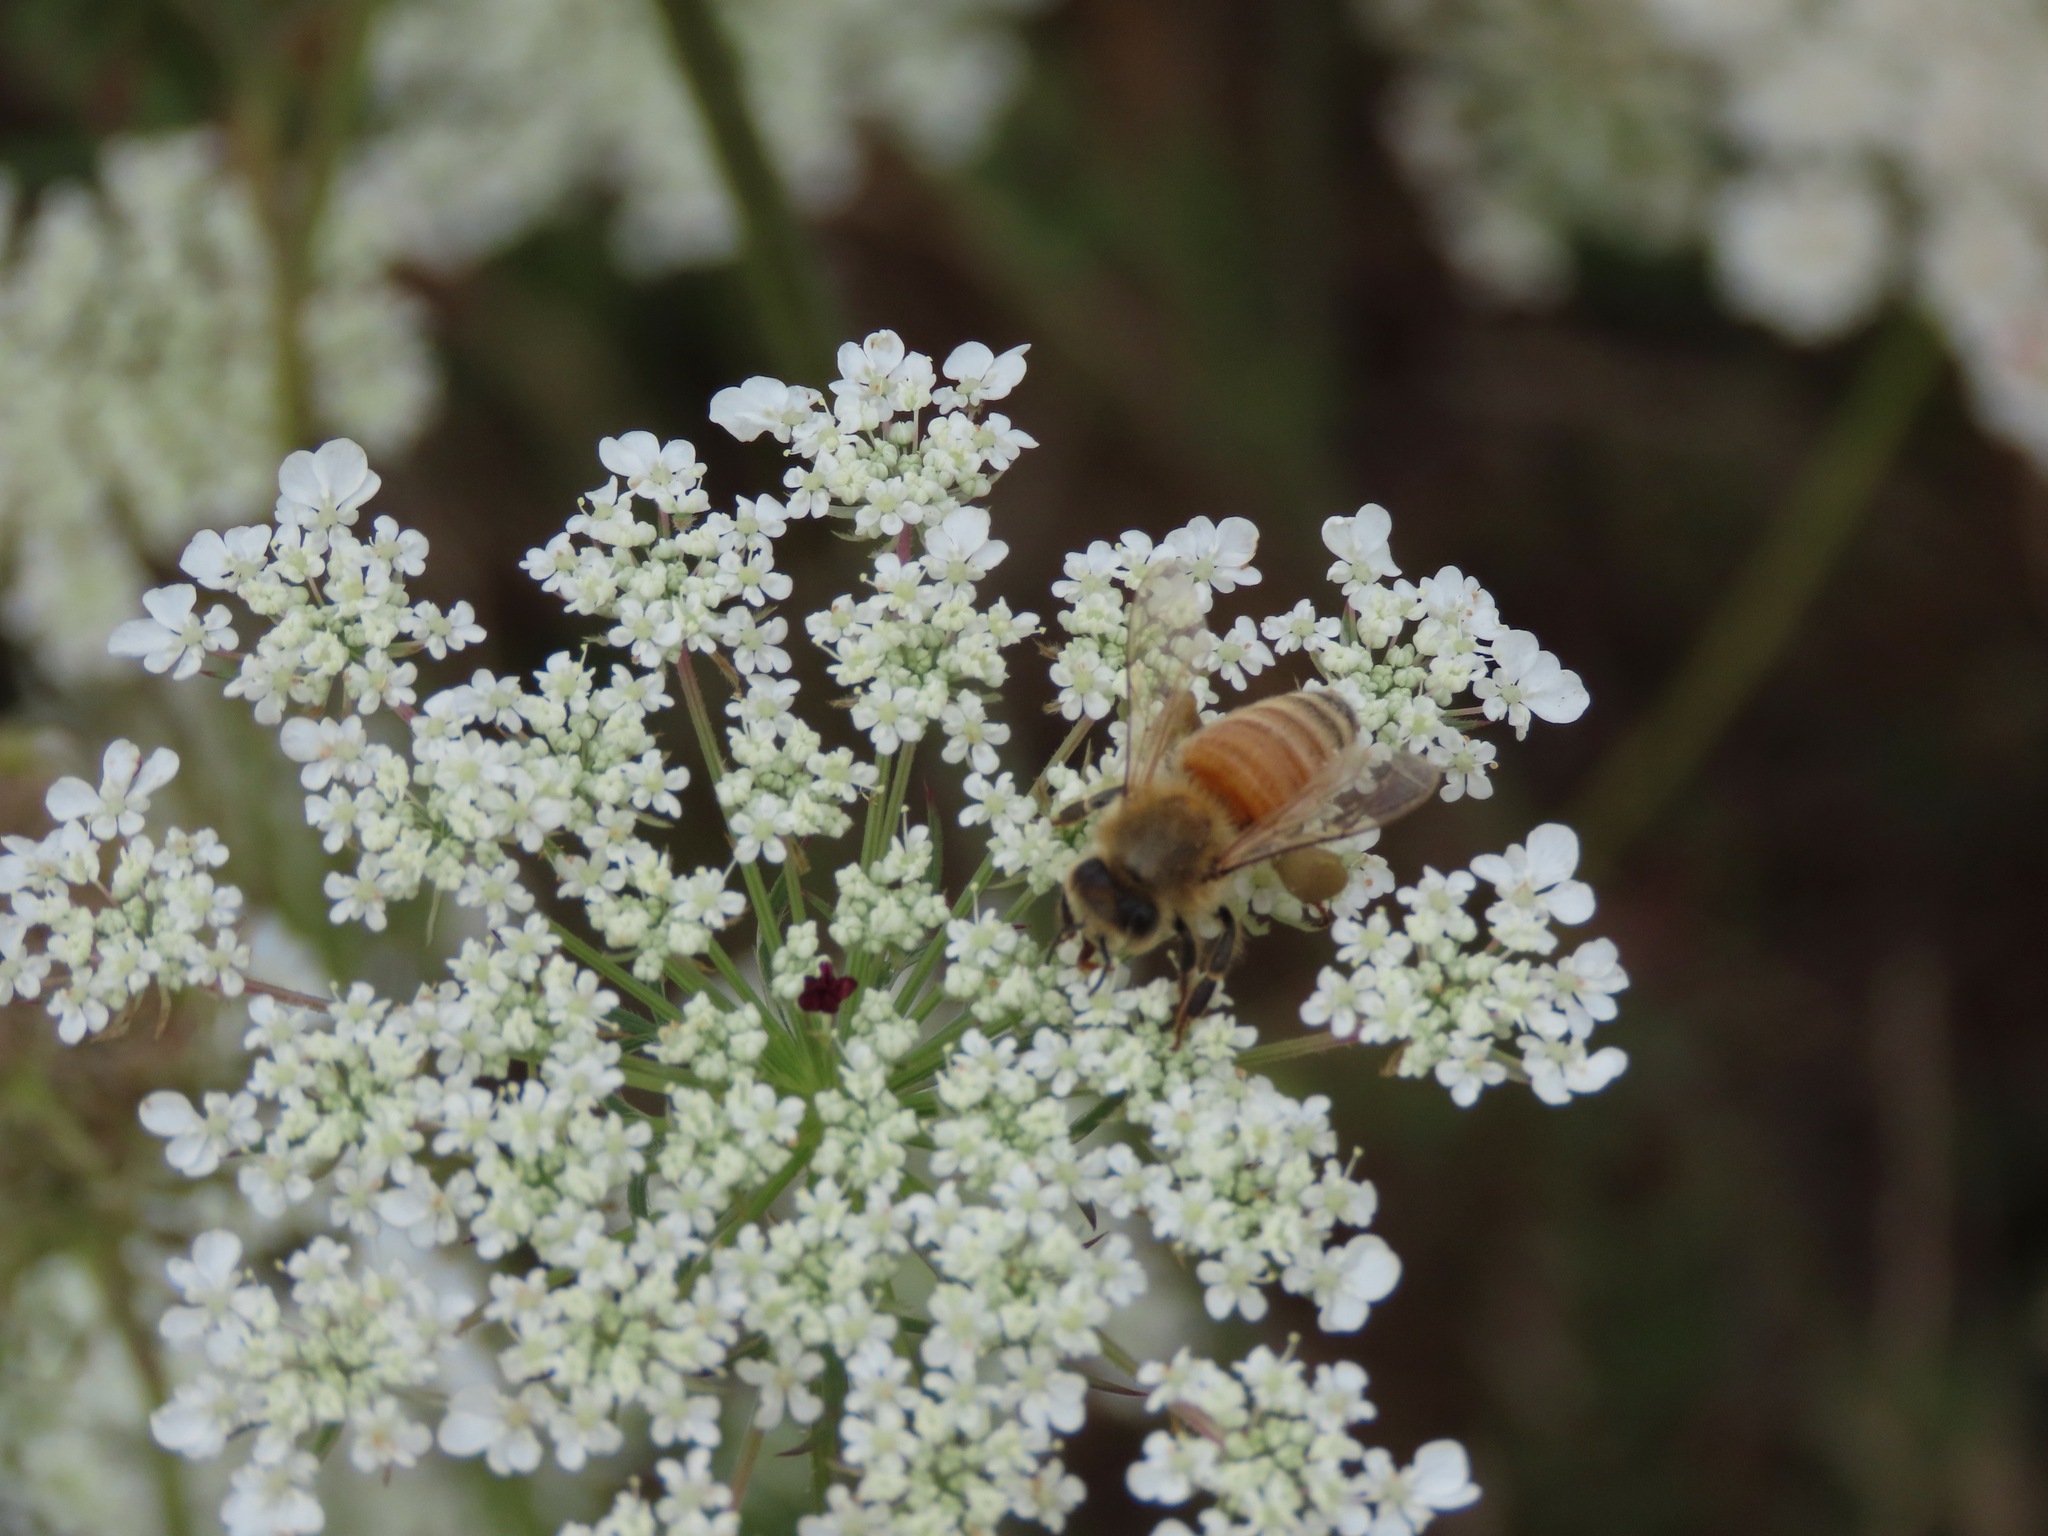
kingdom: Animalia
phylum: Arthropoda
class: Insecta
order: Hymenoptera
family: Apidae
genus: Apis
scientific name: Apis mellifera
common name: Honey bee
